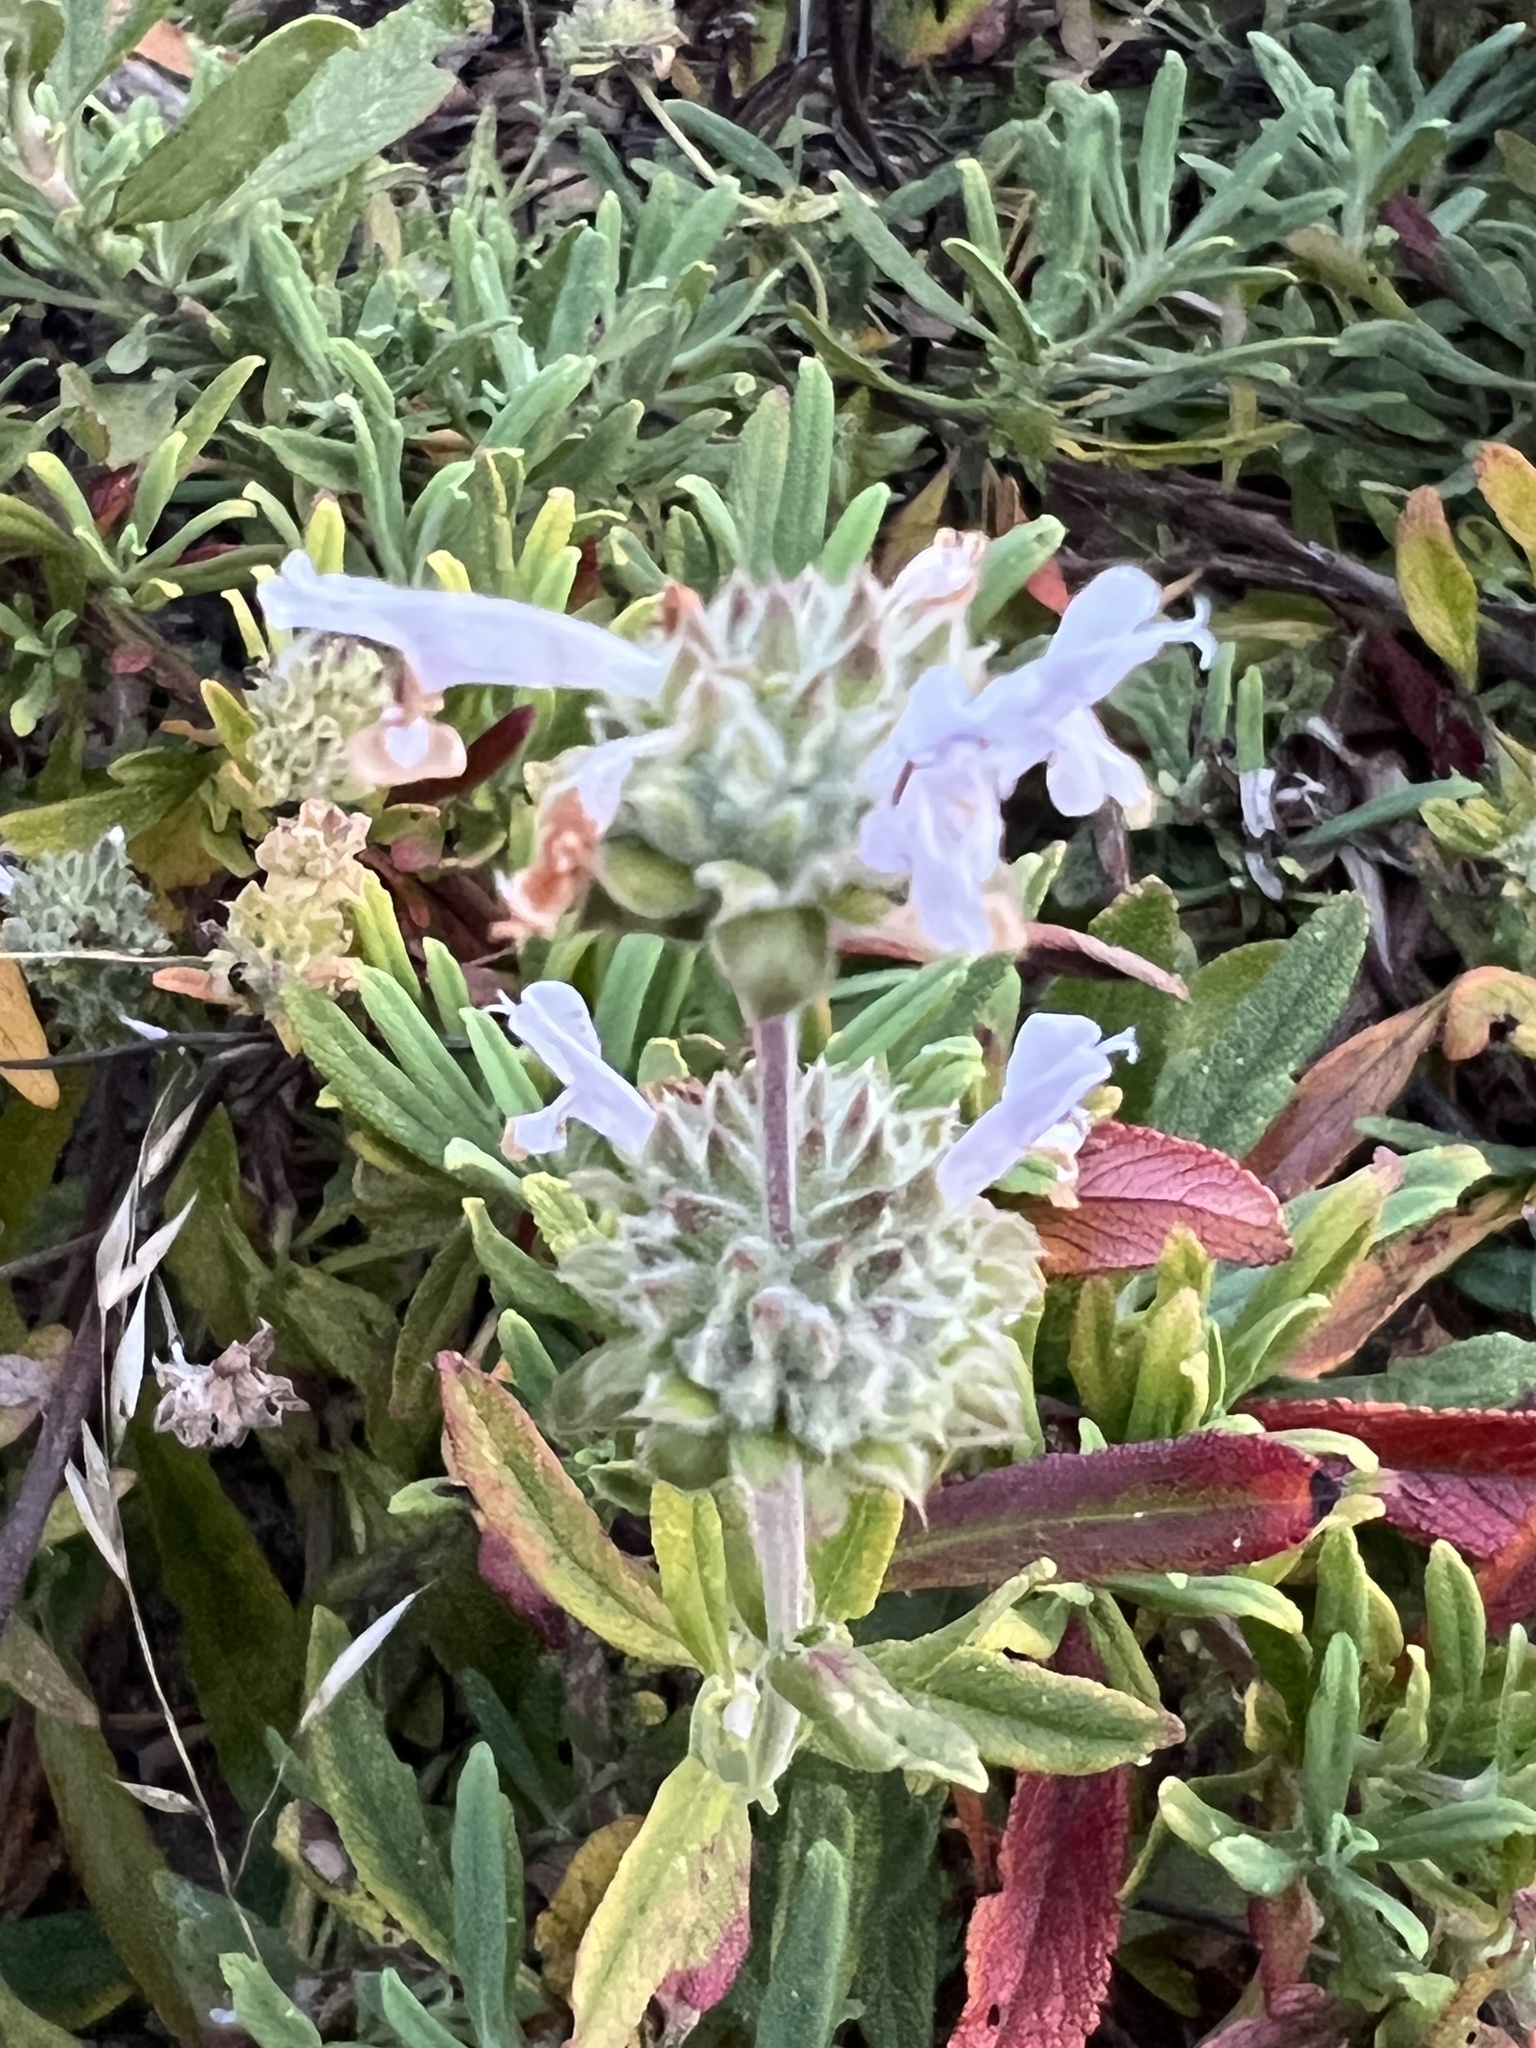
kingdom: Plantae
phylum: Tracheophyta
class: Magnoliopsida
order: Lamiales
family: Lamiaceae
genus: Salvia
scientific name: Salvia mellifera
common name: Black sage
